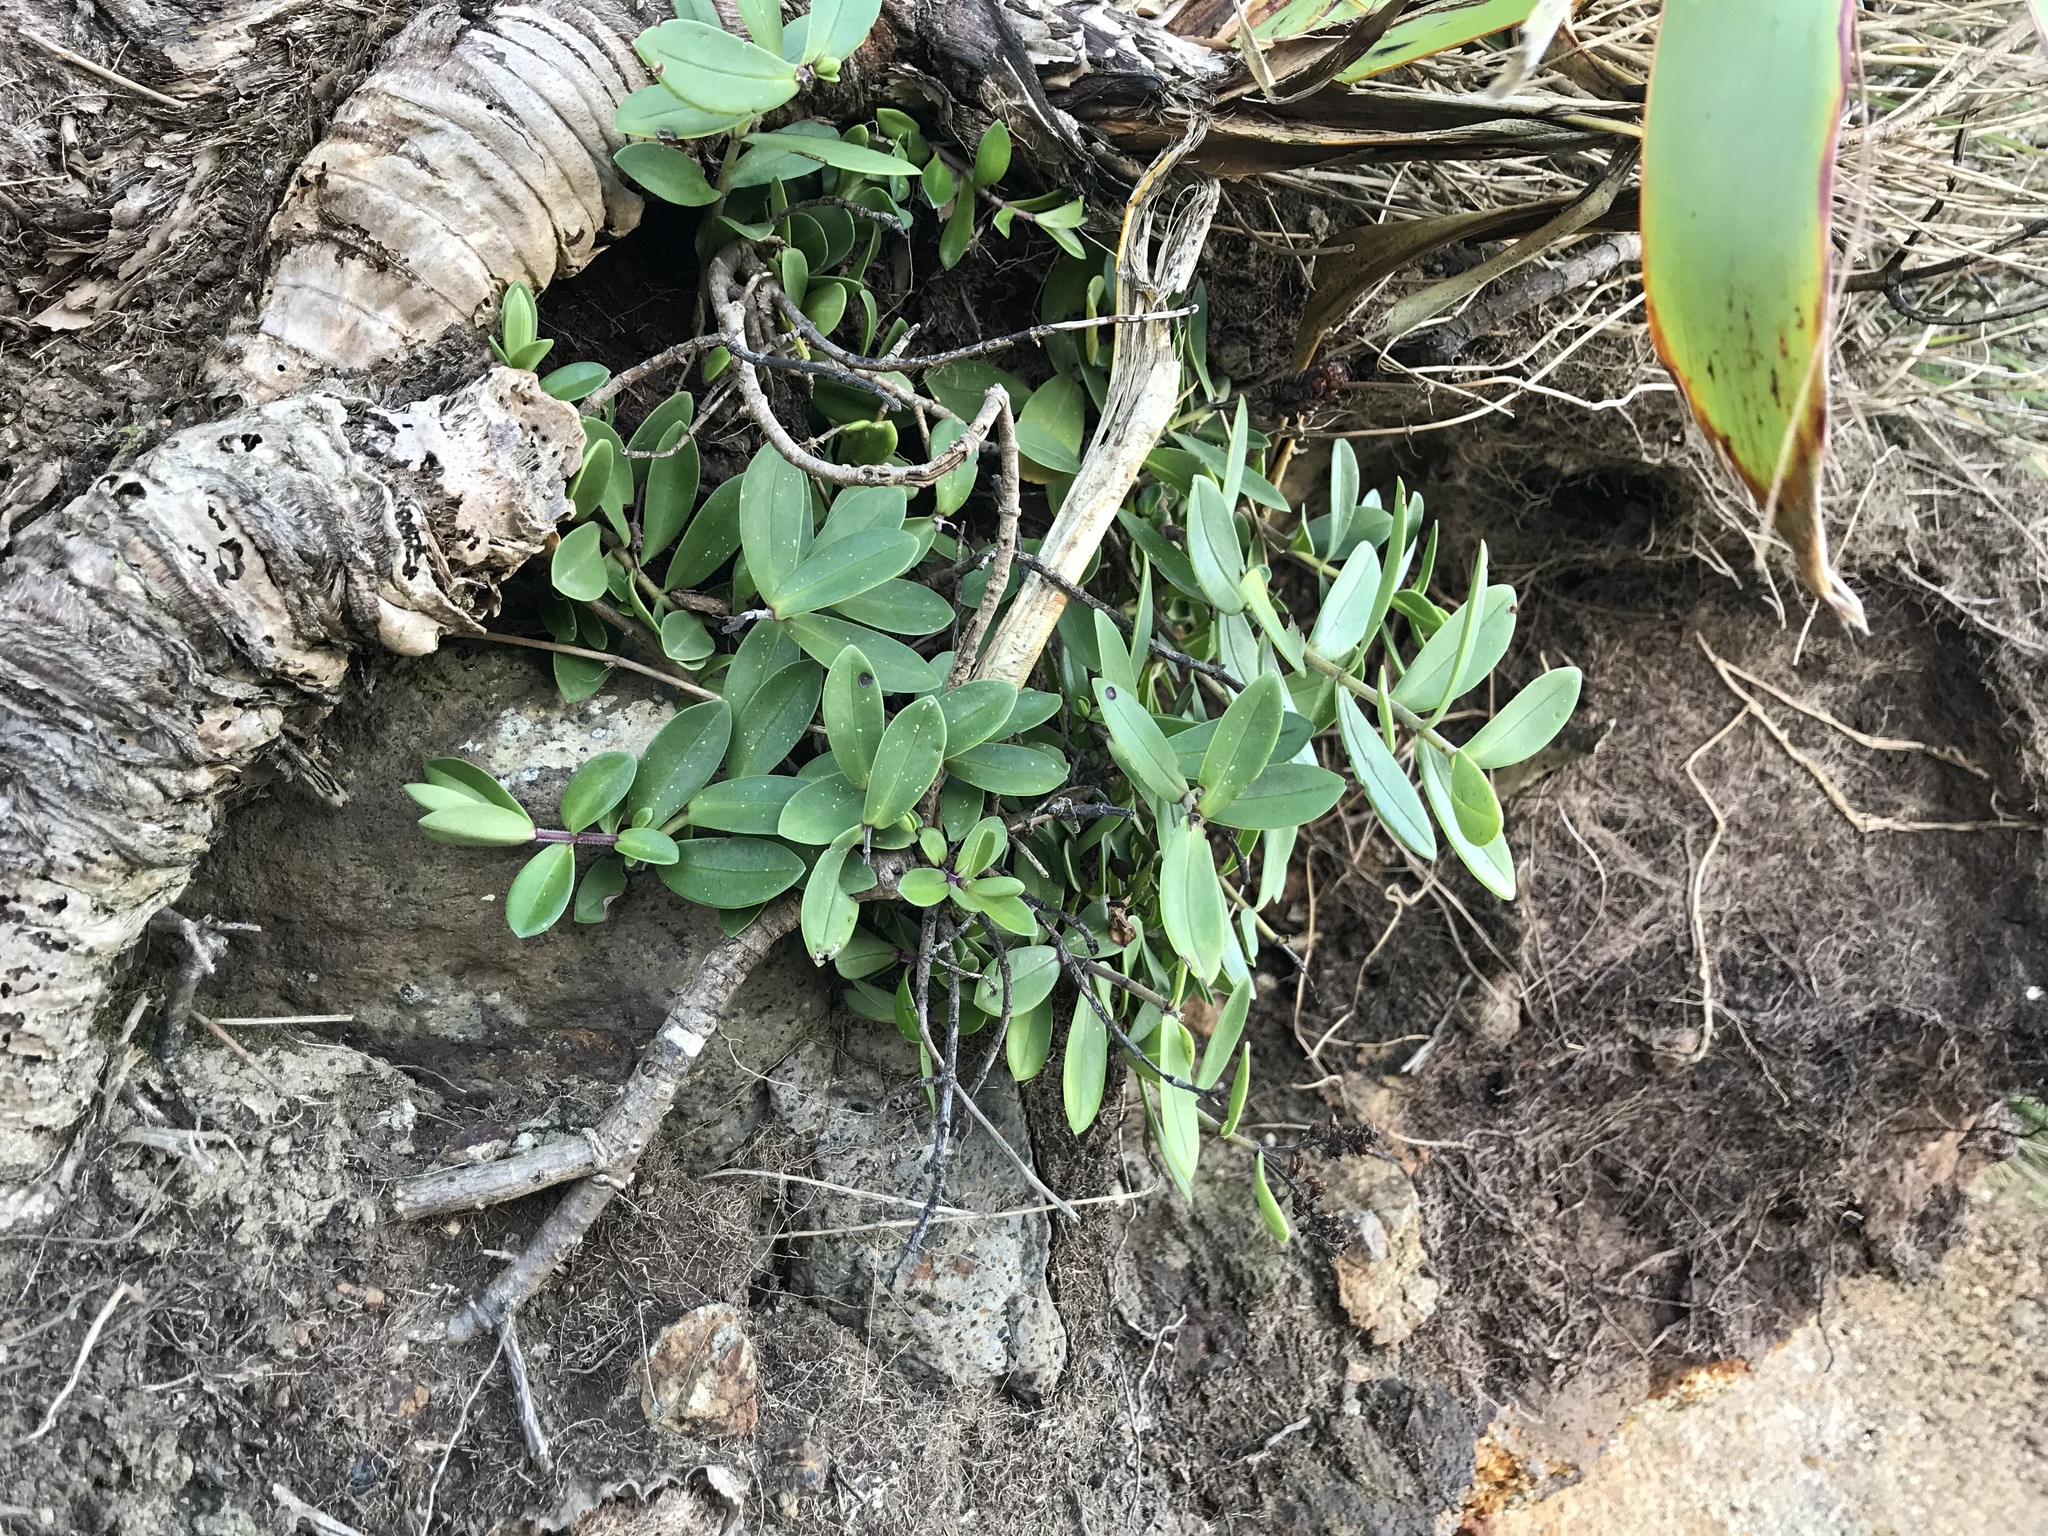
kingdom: Plantae
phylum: Tracheophyta
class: Magnoliopsida
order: Lamiales
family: Plantaginaceae
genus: Veronica
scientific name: Veronica chathamica
